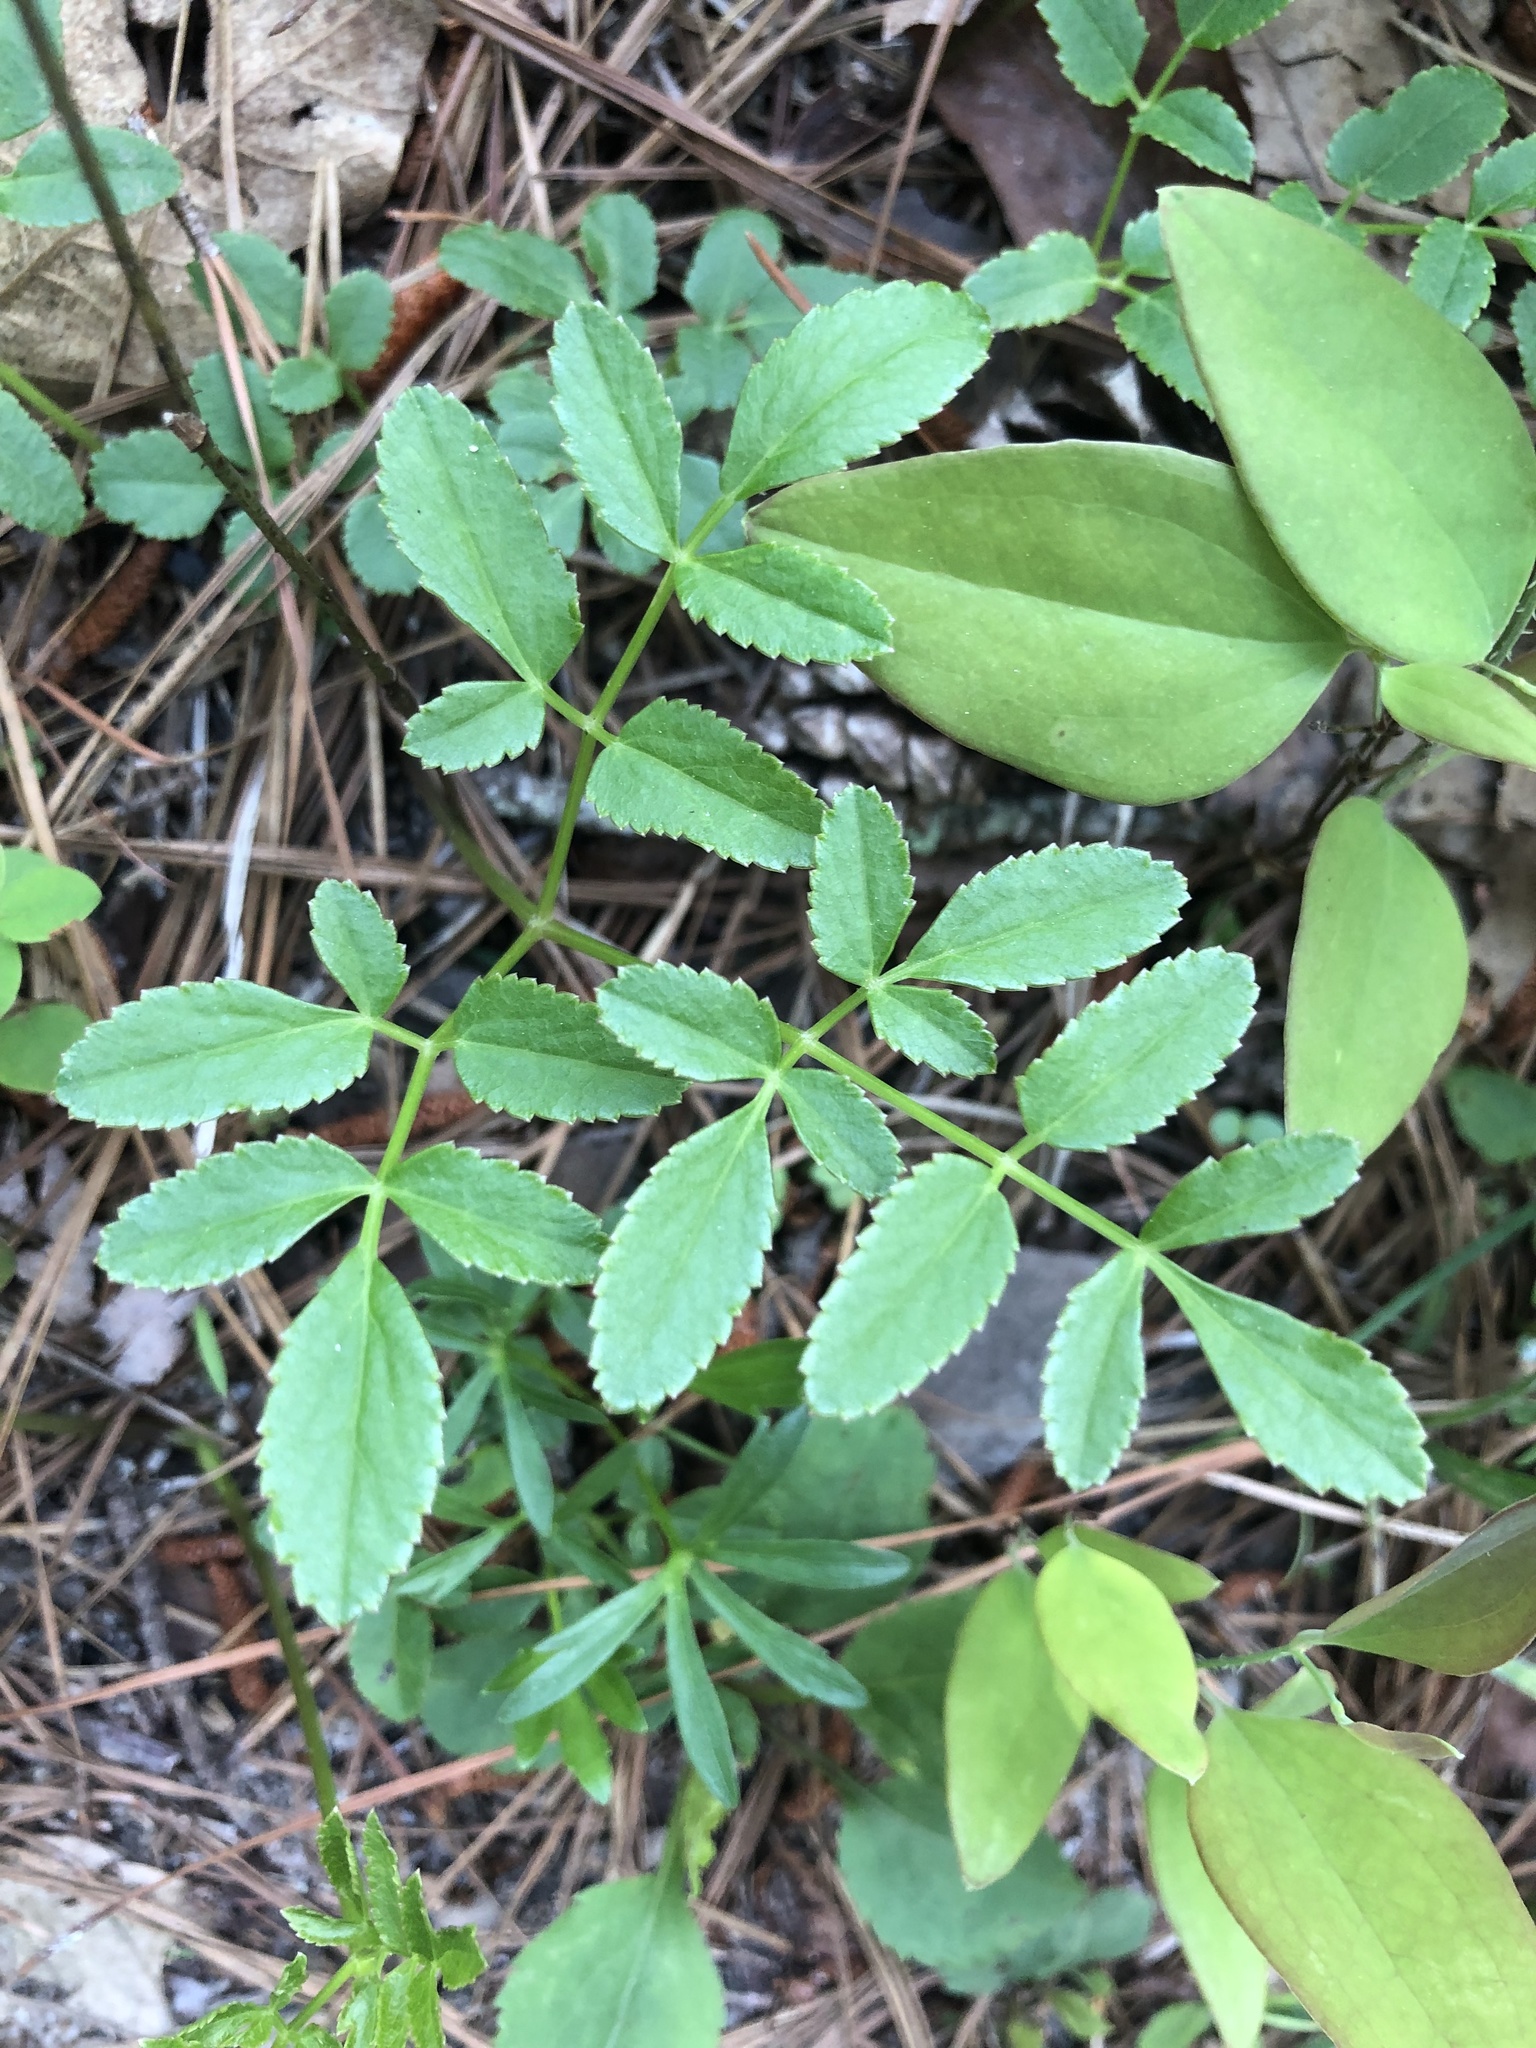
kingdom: Plantae
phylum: Tracheophyta
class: Magnoliopsida
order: Apiales
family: Apiaceae
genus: Angelica
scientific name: Angelica venenosa
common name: Hairy angelica
